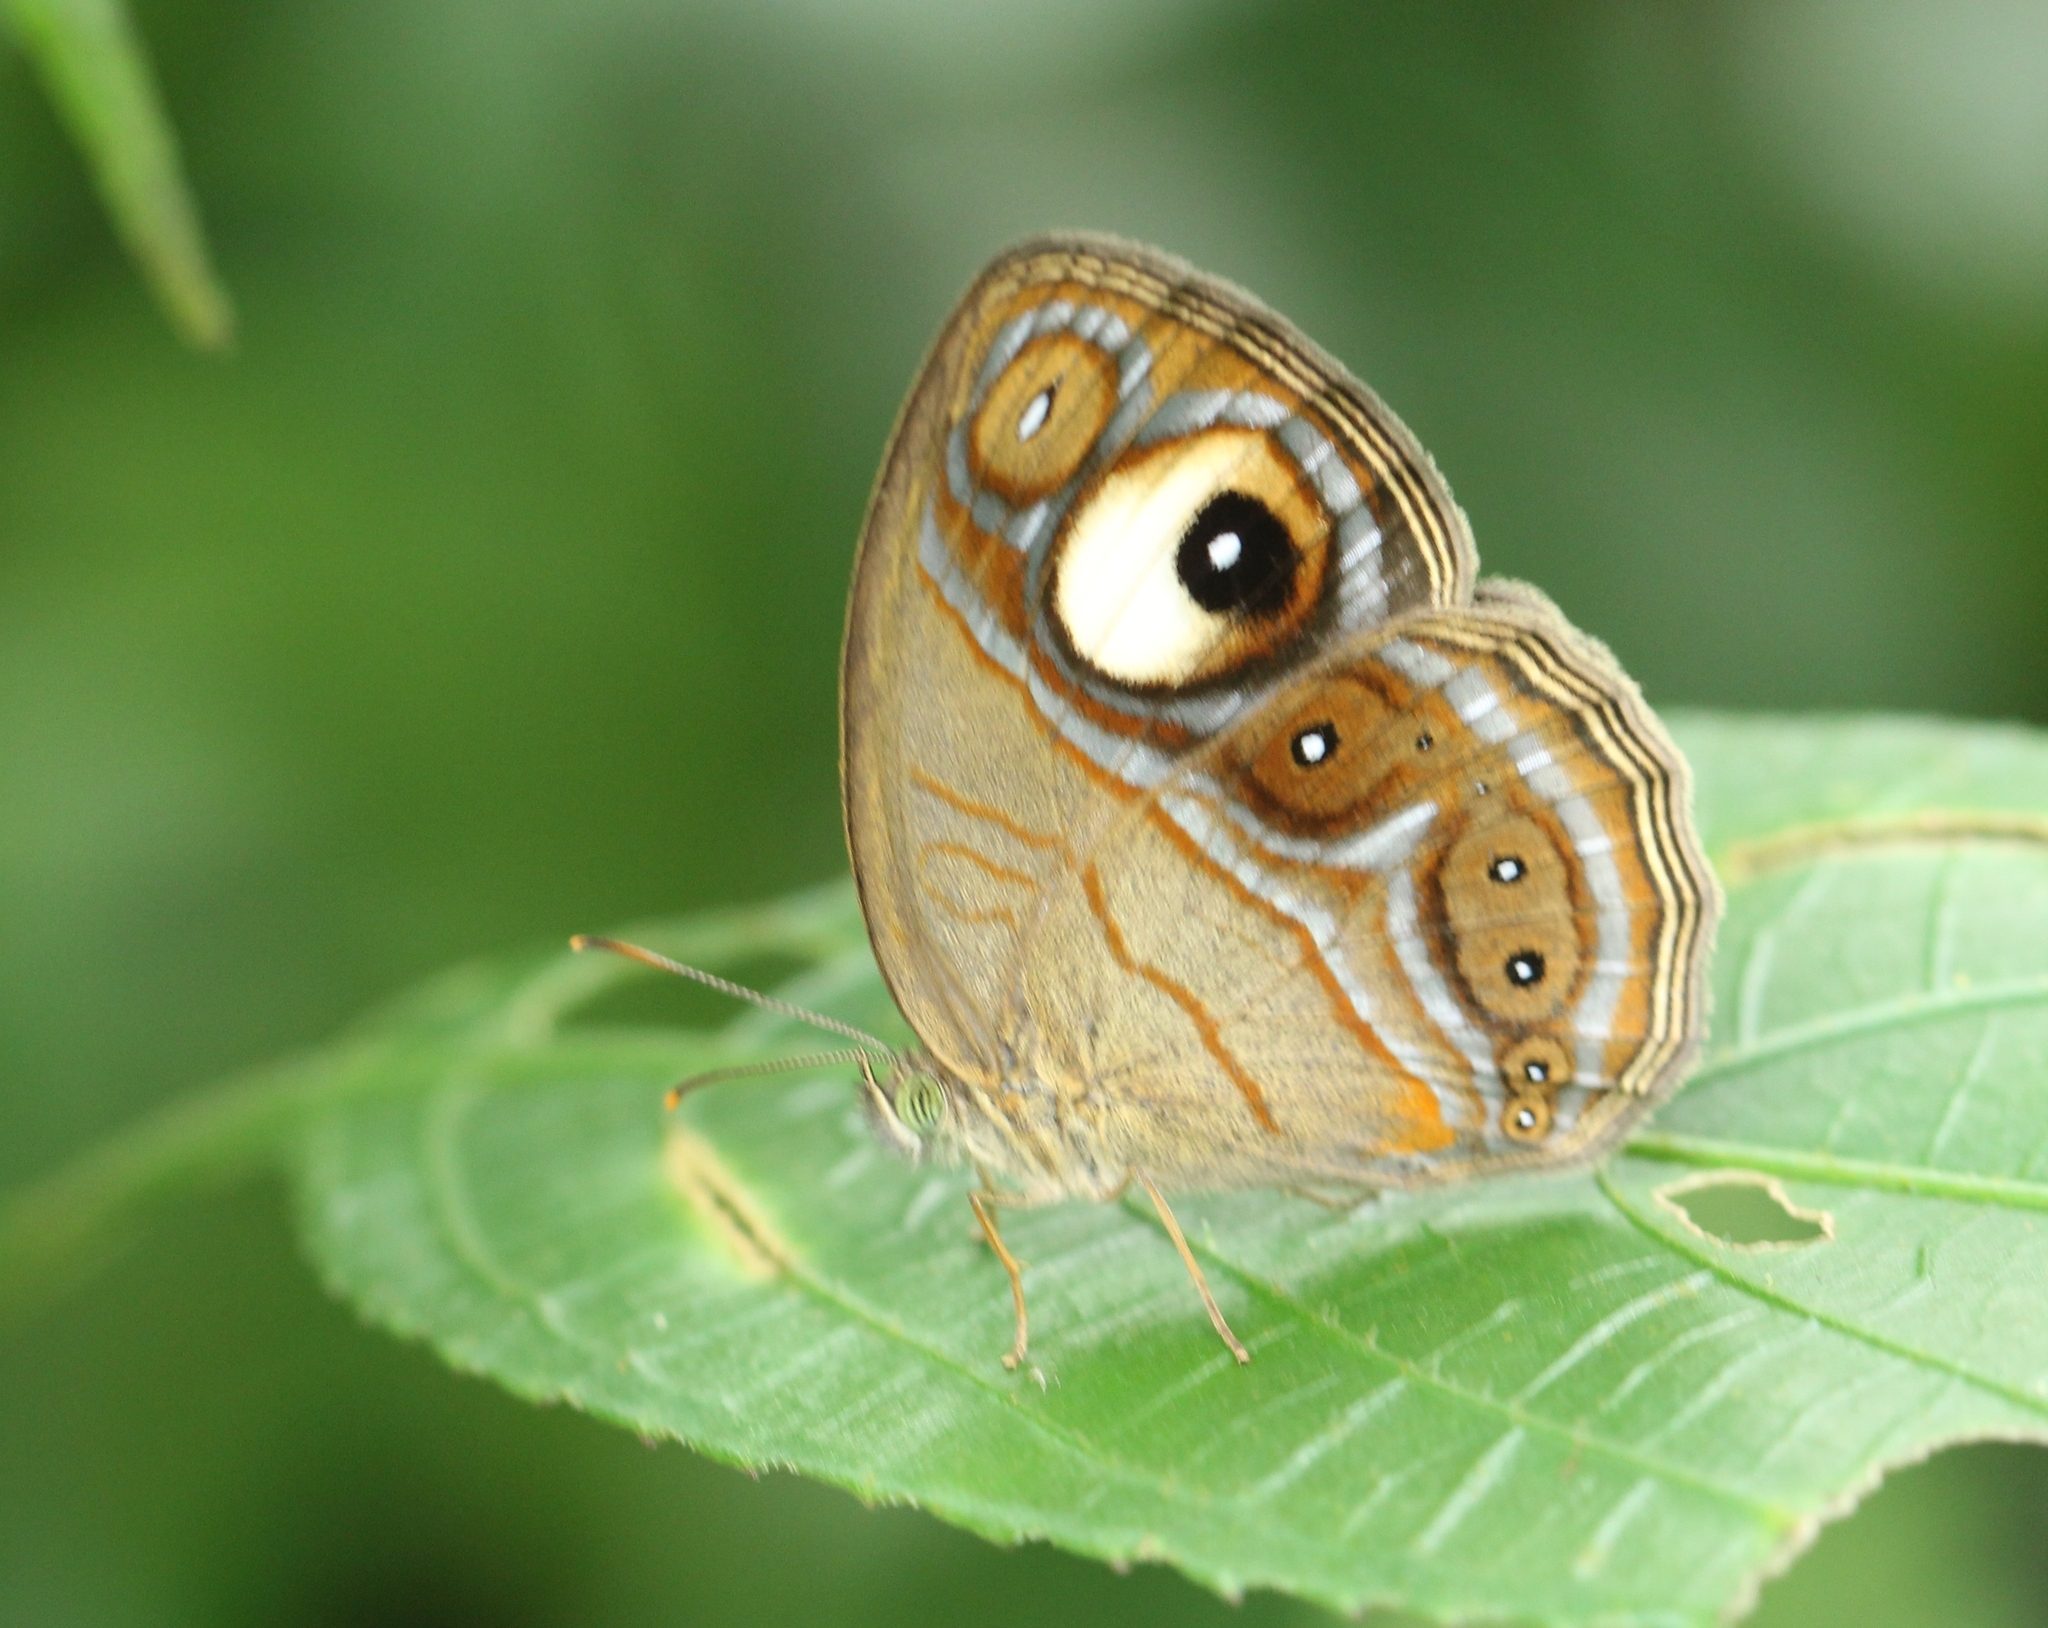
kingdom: Animalia
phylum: Arthropoda
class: Insecta
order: Lepidoptera
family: Nymphalidae
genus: Mycalesis
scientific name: Mycalesis patnia
